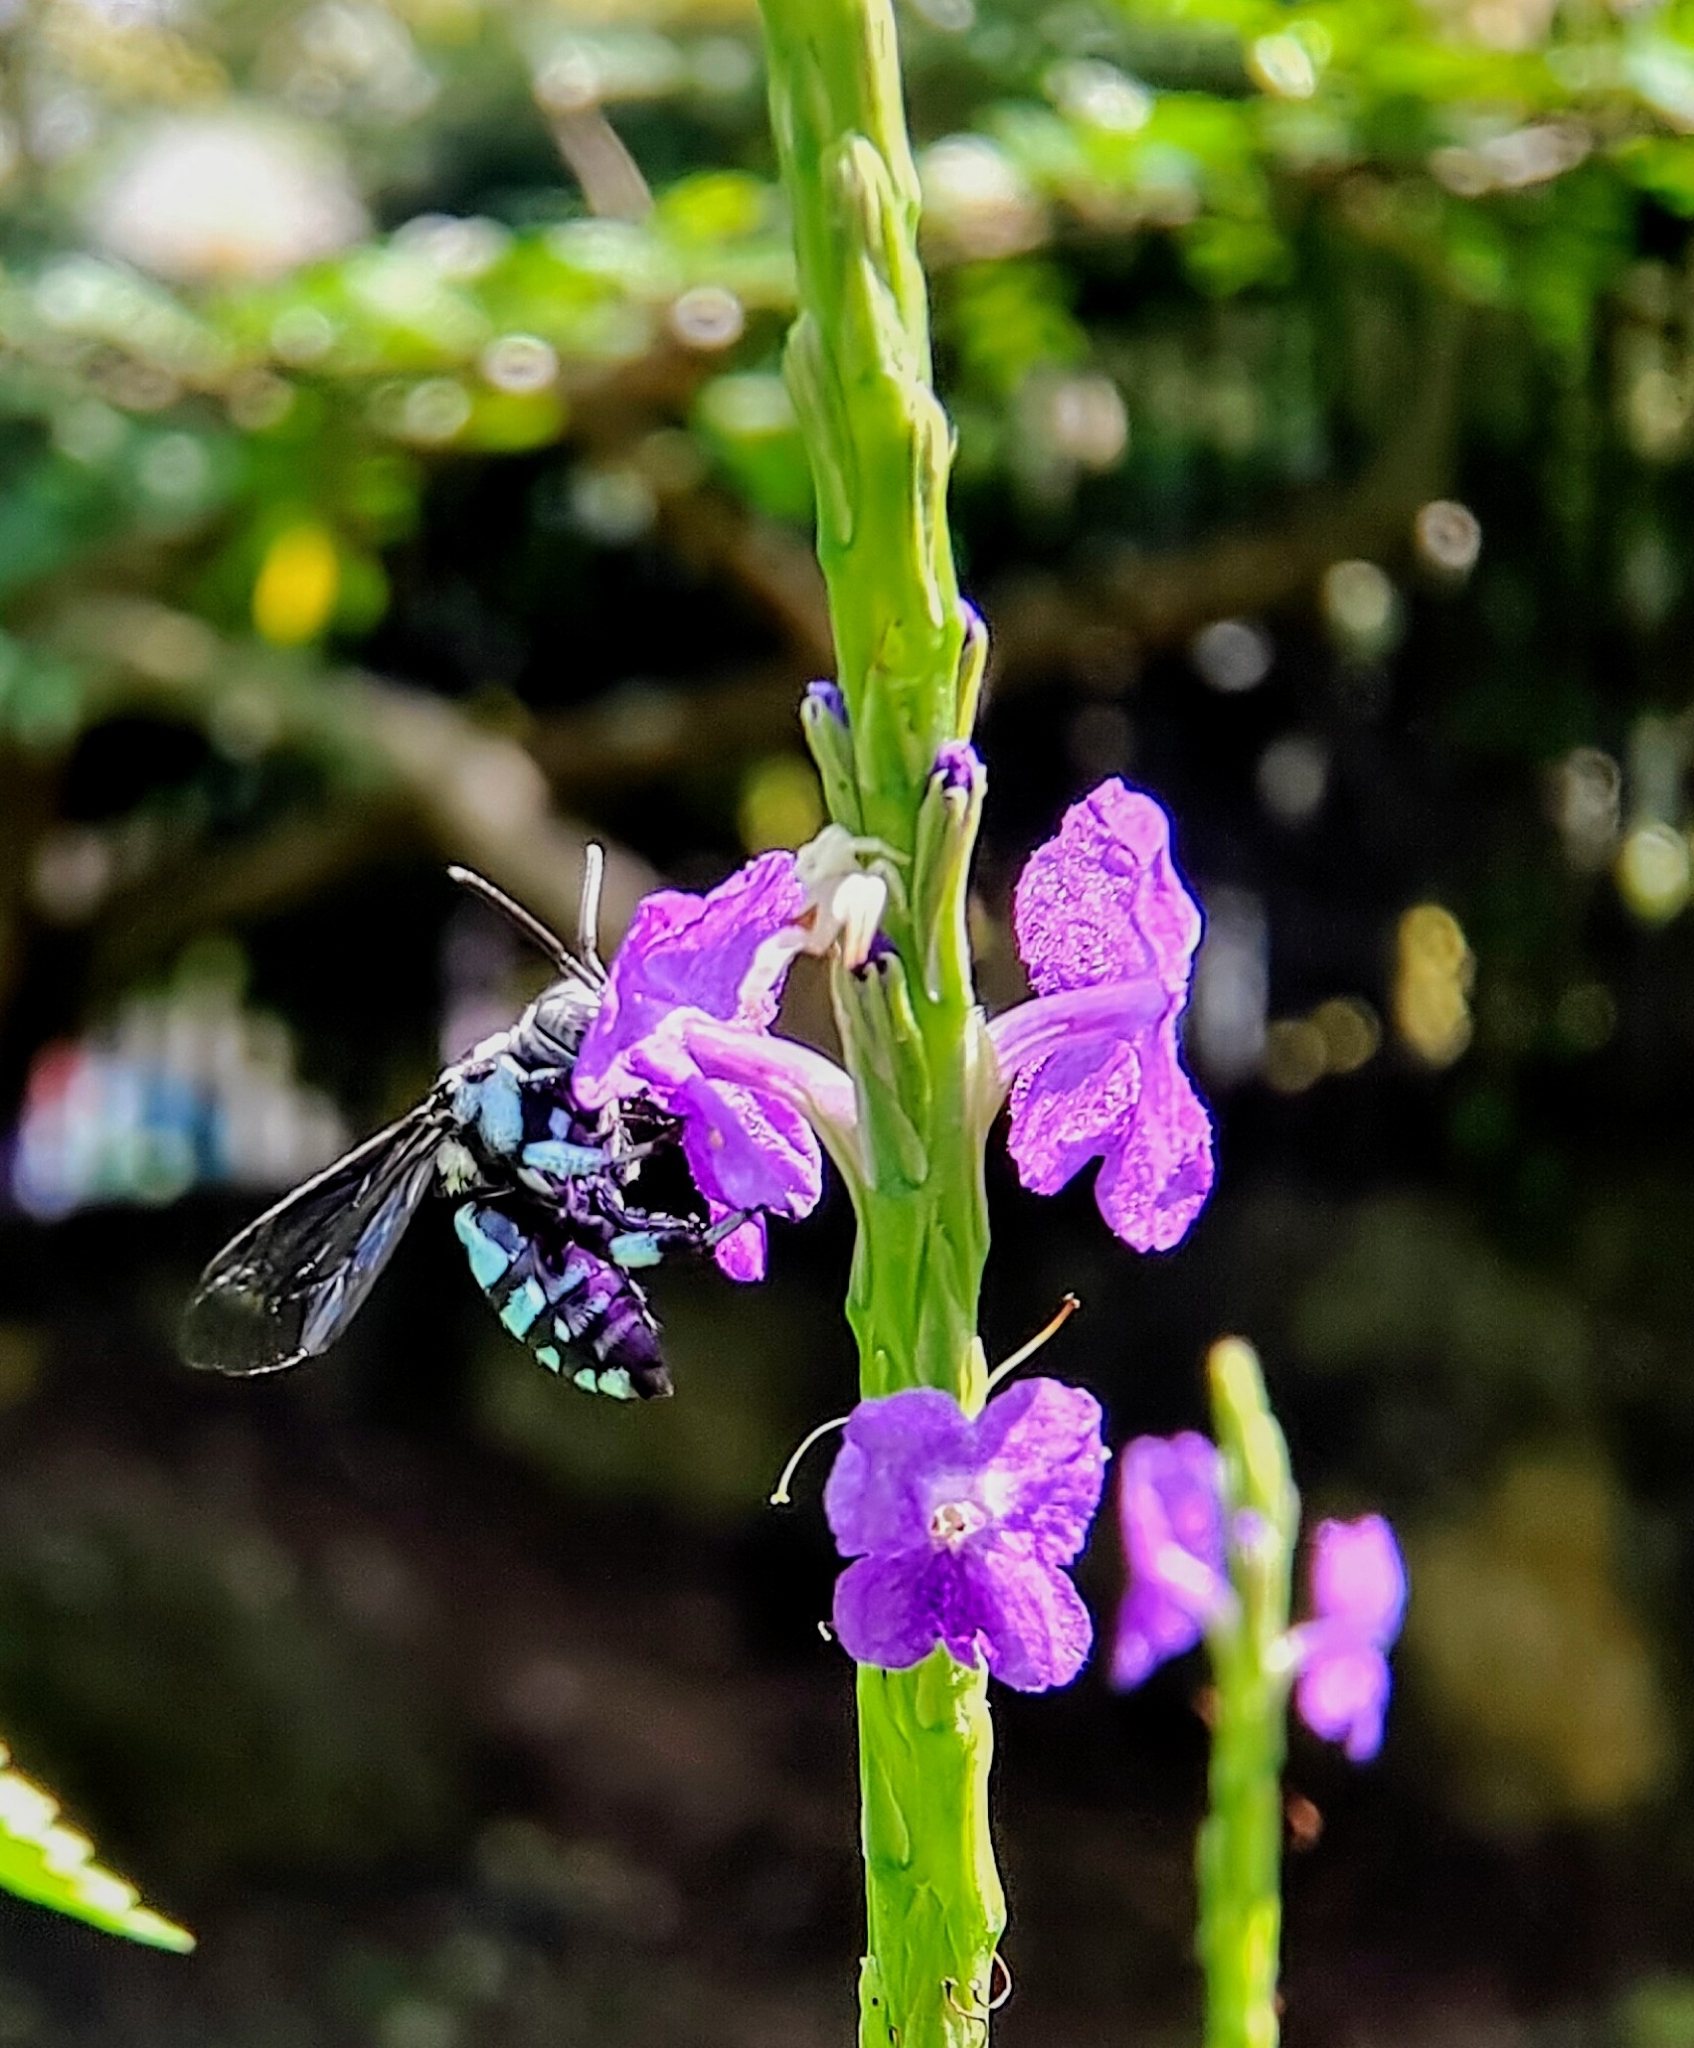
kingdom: Animalia
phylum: Arthropoda
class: Insecta
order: Hymenoptera
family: Apidae
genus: Thyreus
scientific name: Thyreus himalayensis
